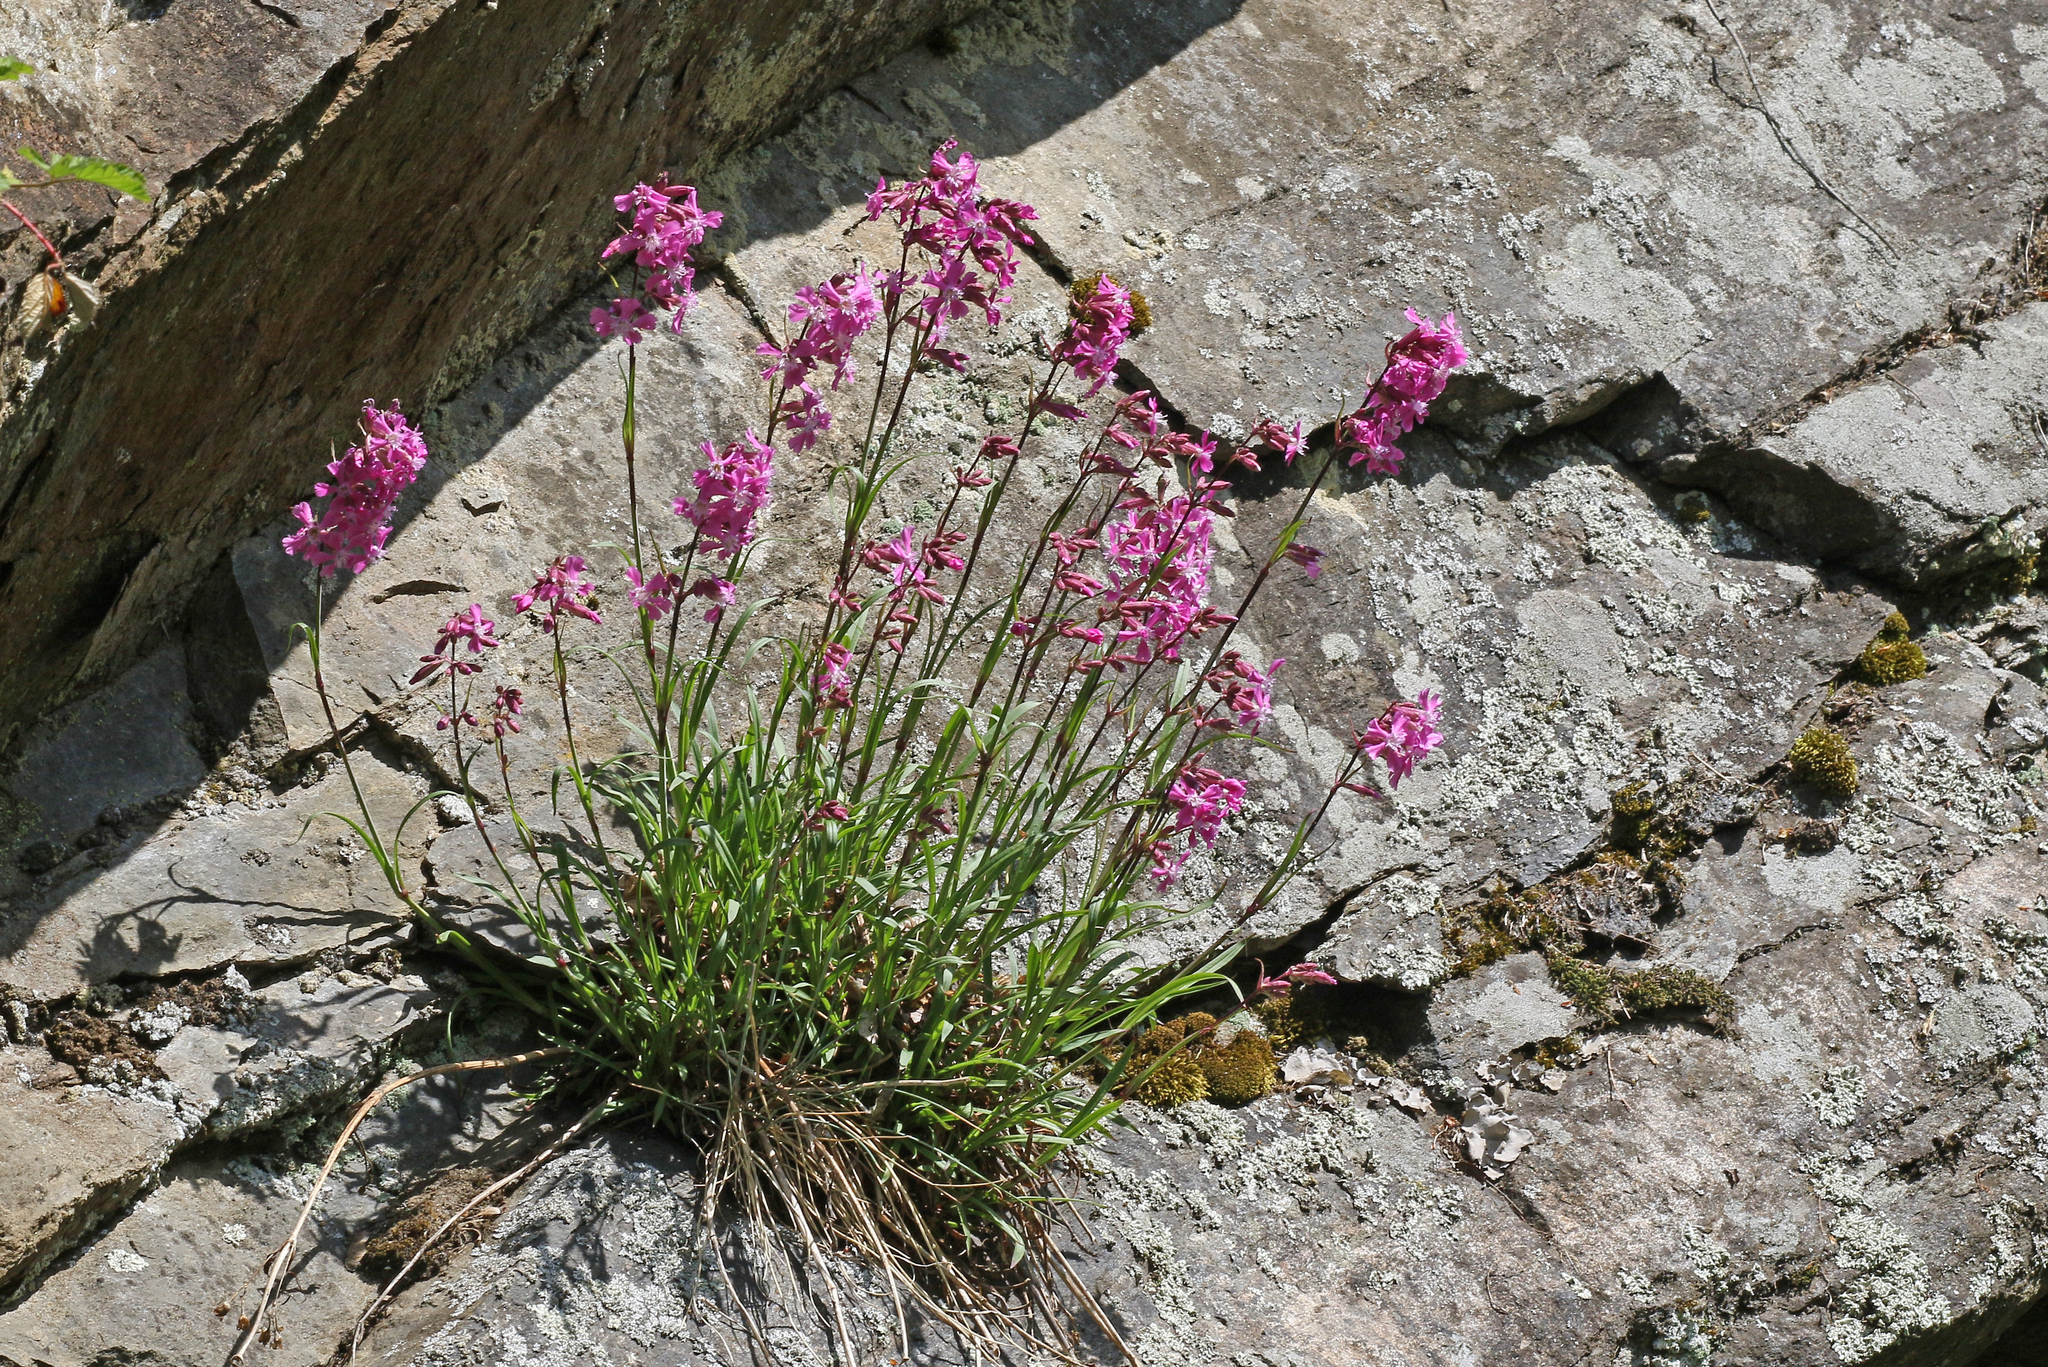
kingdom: Plantae
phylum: Tracheophyta
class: Magnoliopsida
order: Caryophyllales
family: Caryophyllaceae
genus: Viscaria
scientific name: Viscaria vulgaris
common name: Clammy campion
